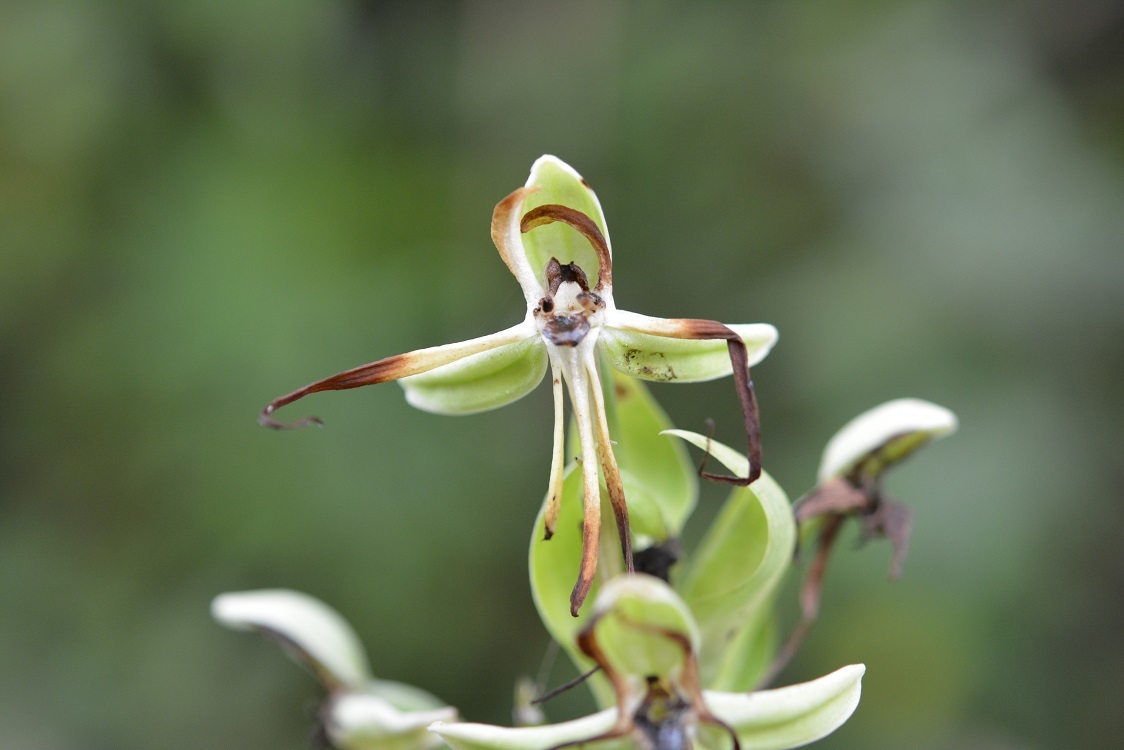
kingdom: Plantae
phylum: Tracheophyta
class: Liliopsida
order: Asparagales
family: Orchidaceae
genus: Habenaria
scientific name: Habenaria macroceratitis
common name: Big-horn bog orchid
